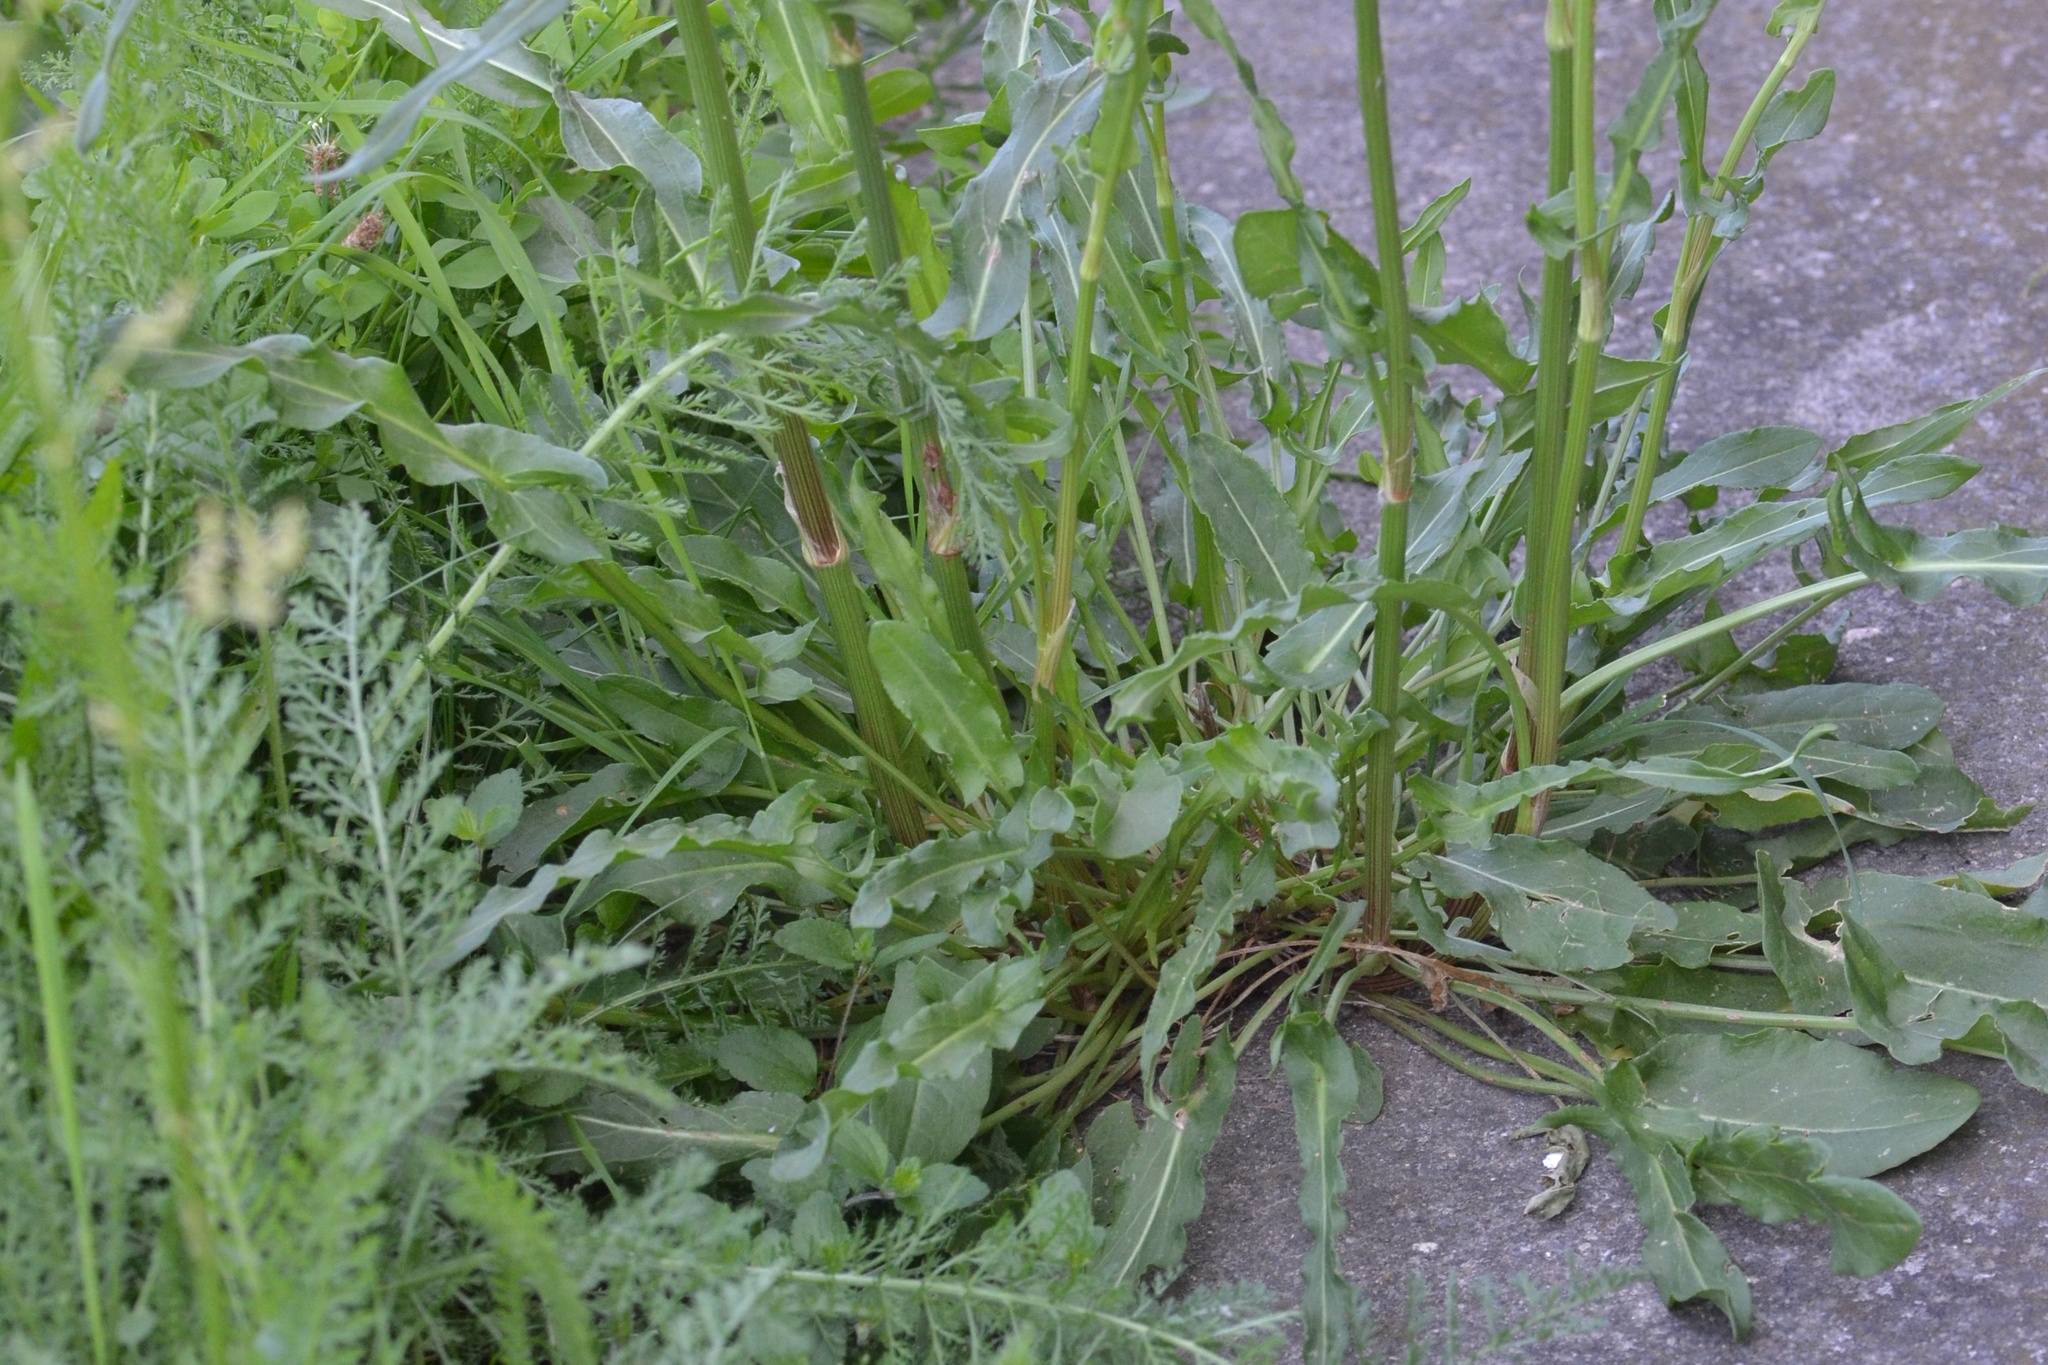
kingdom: Plantae
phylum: Tracheophyta
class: Magnoliopsida
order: Caryophyllales
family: Polygonaceae
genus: Rumex
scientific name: Rumex thyrsiflorus
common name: Garden sorrel
